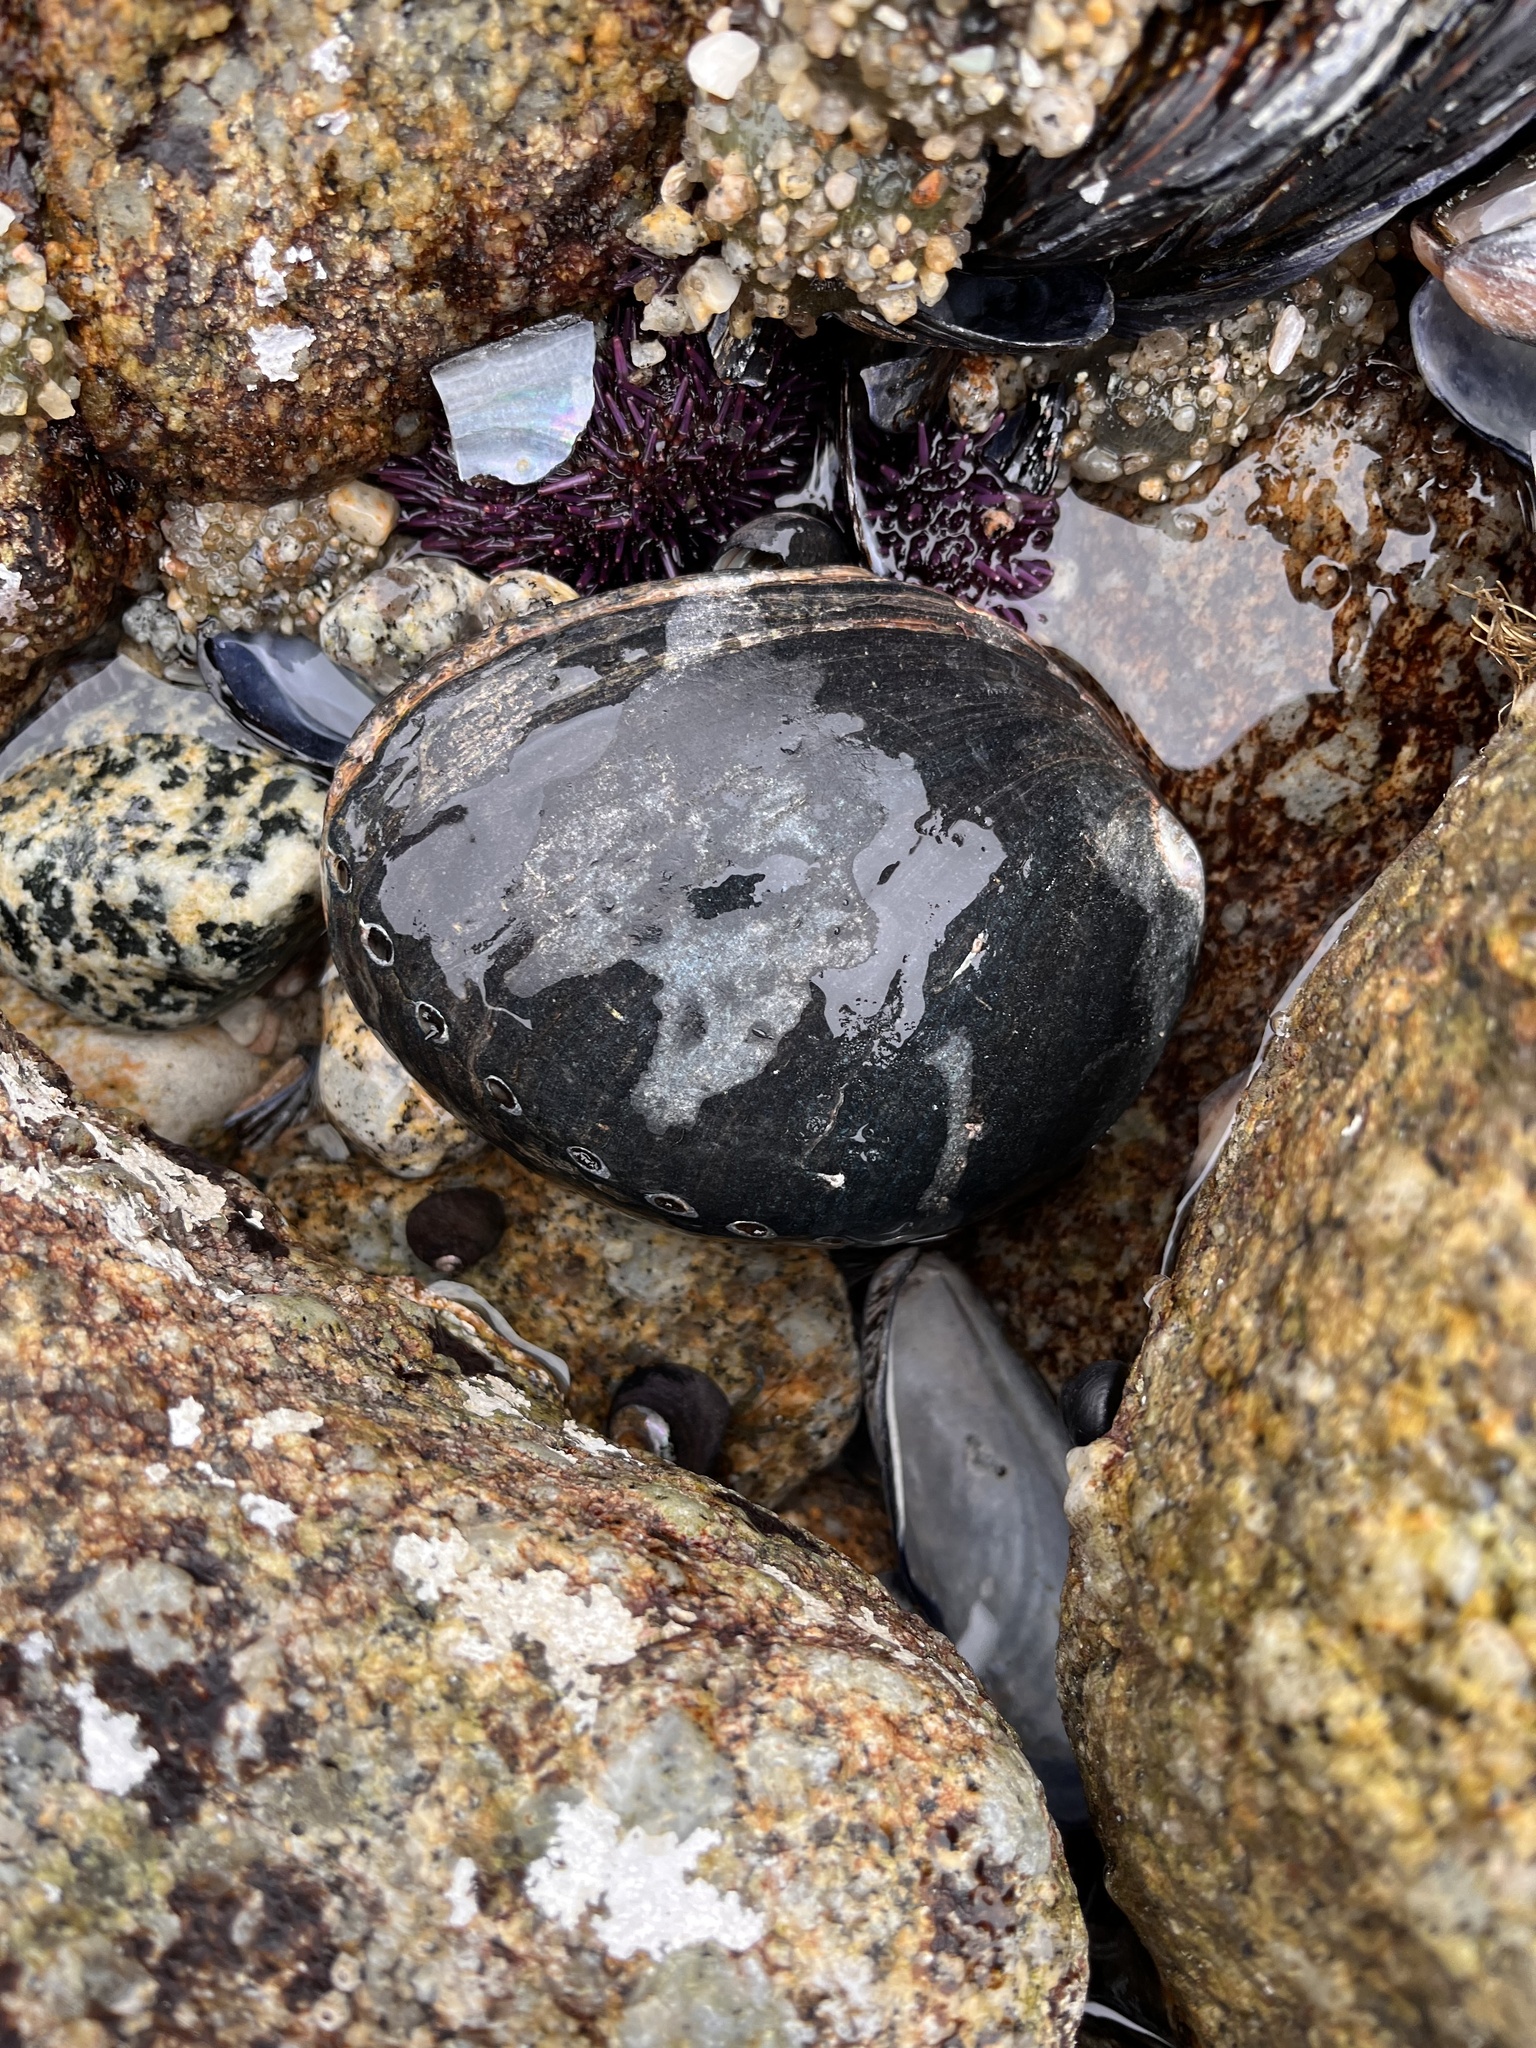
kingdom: Animalia
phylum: Mollusca
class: Gastropoda
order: Lepetellida
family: Haliotidae
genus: Haliotis
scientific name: Haliotis cracherodii
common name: Black abalone
